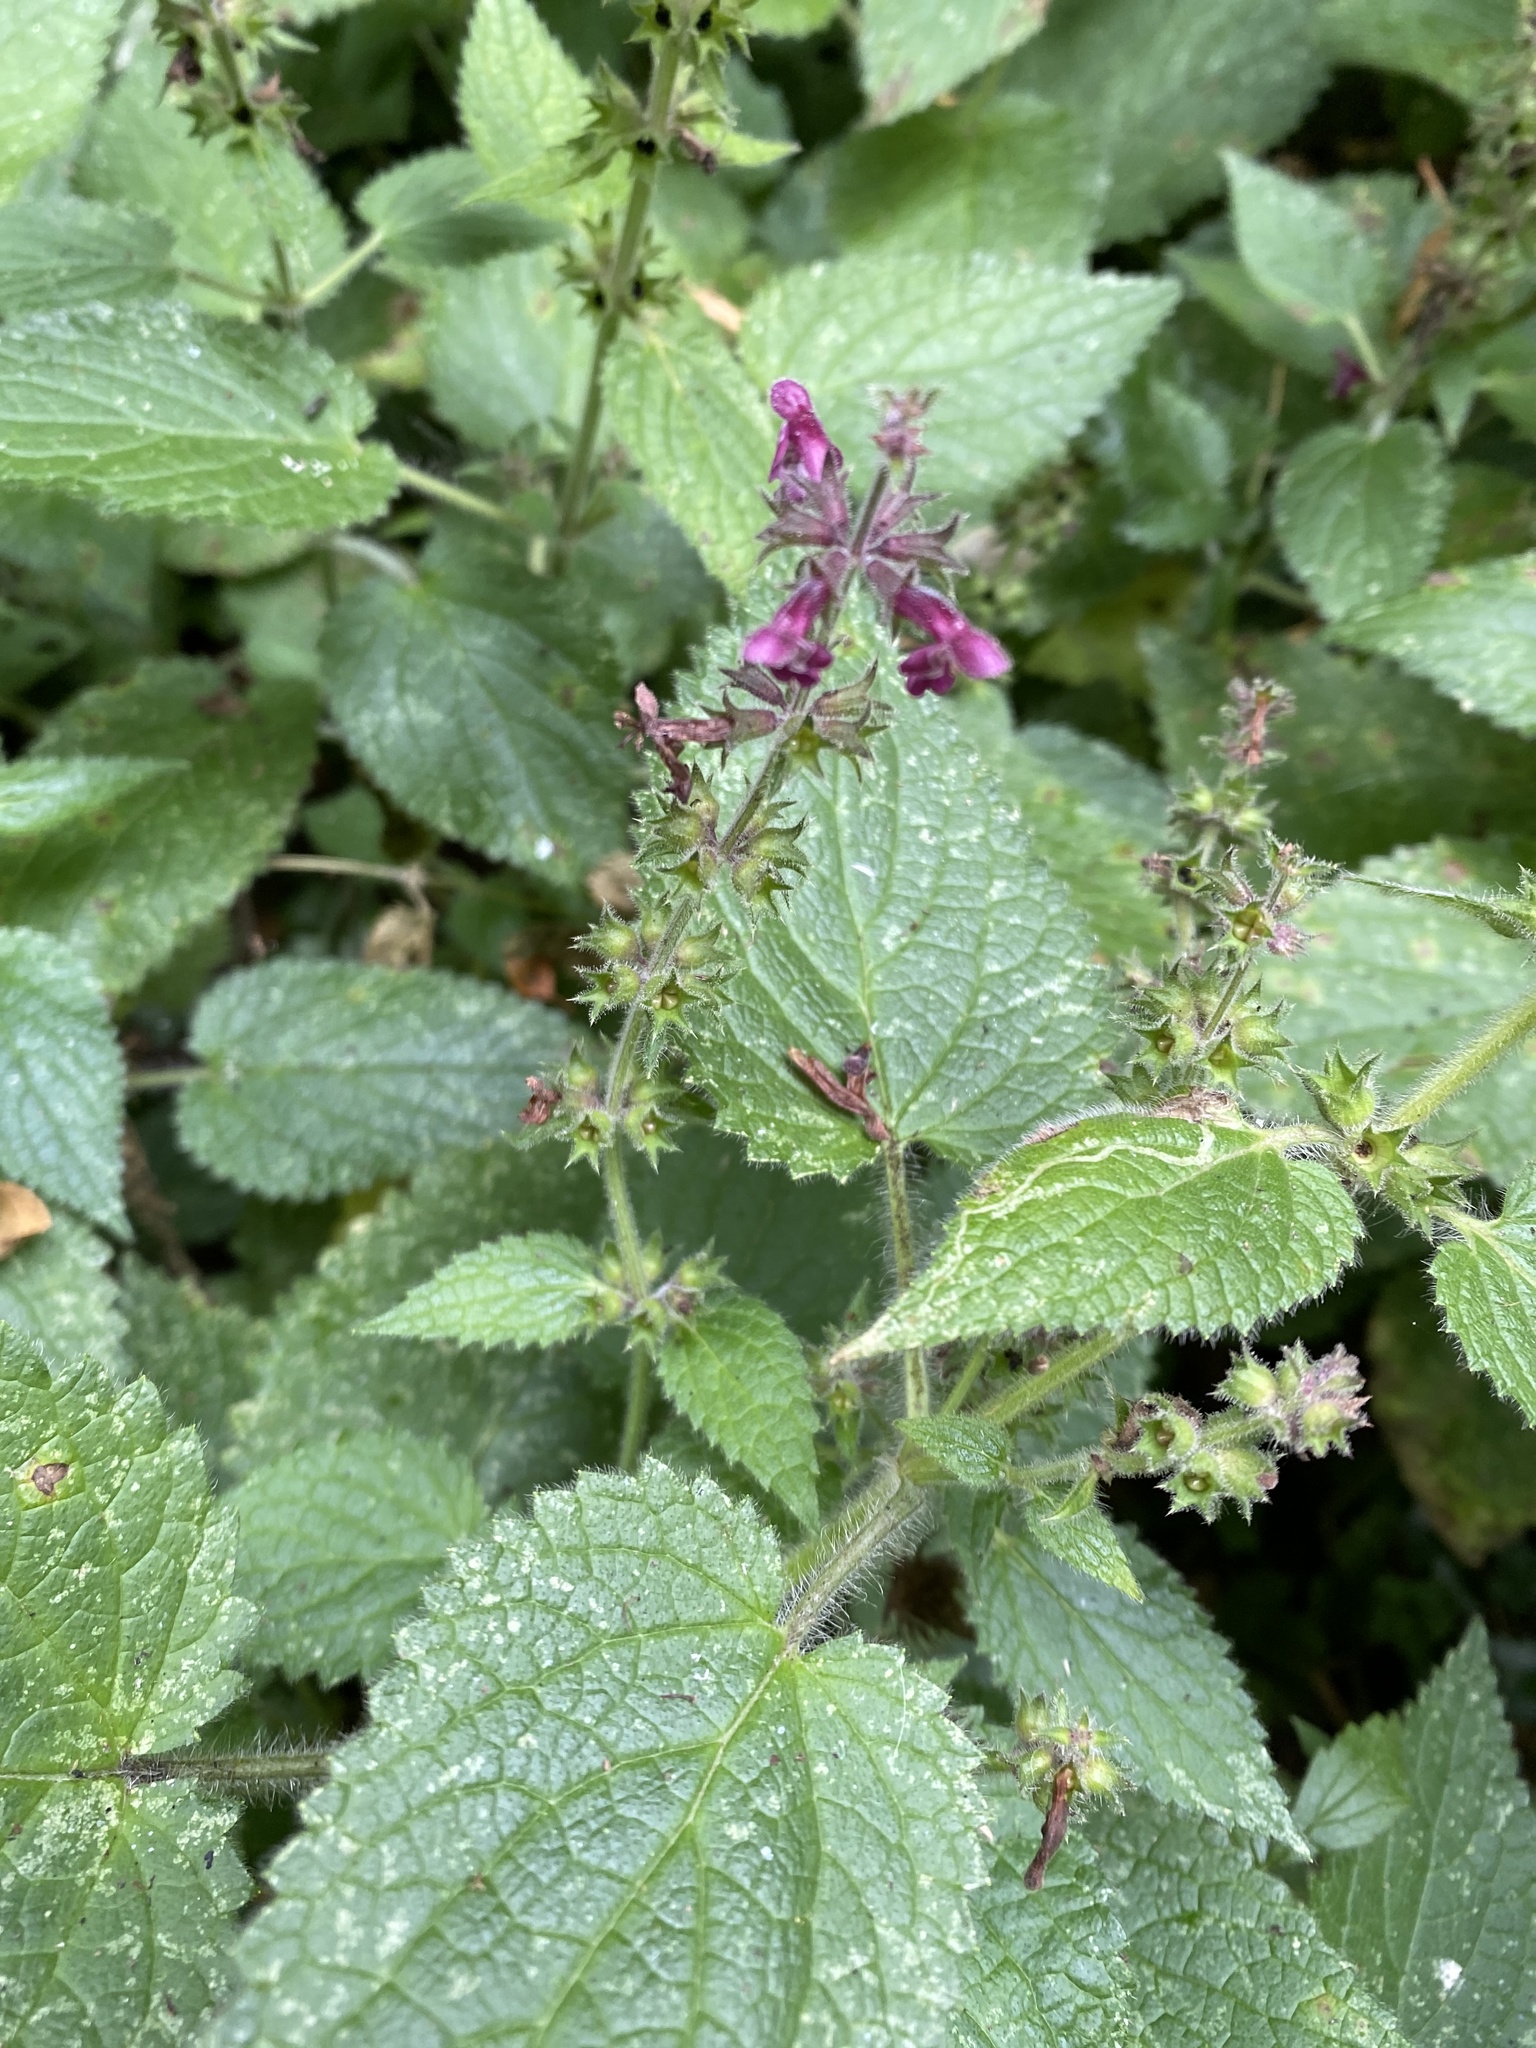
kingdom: Plantae
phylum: Tracheophyta
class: Magnoliopsida
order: Lamiales
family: Lamiaceae
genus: Stachys
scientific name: Stachys sylvatica
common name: Hedge woundwort
